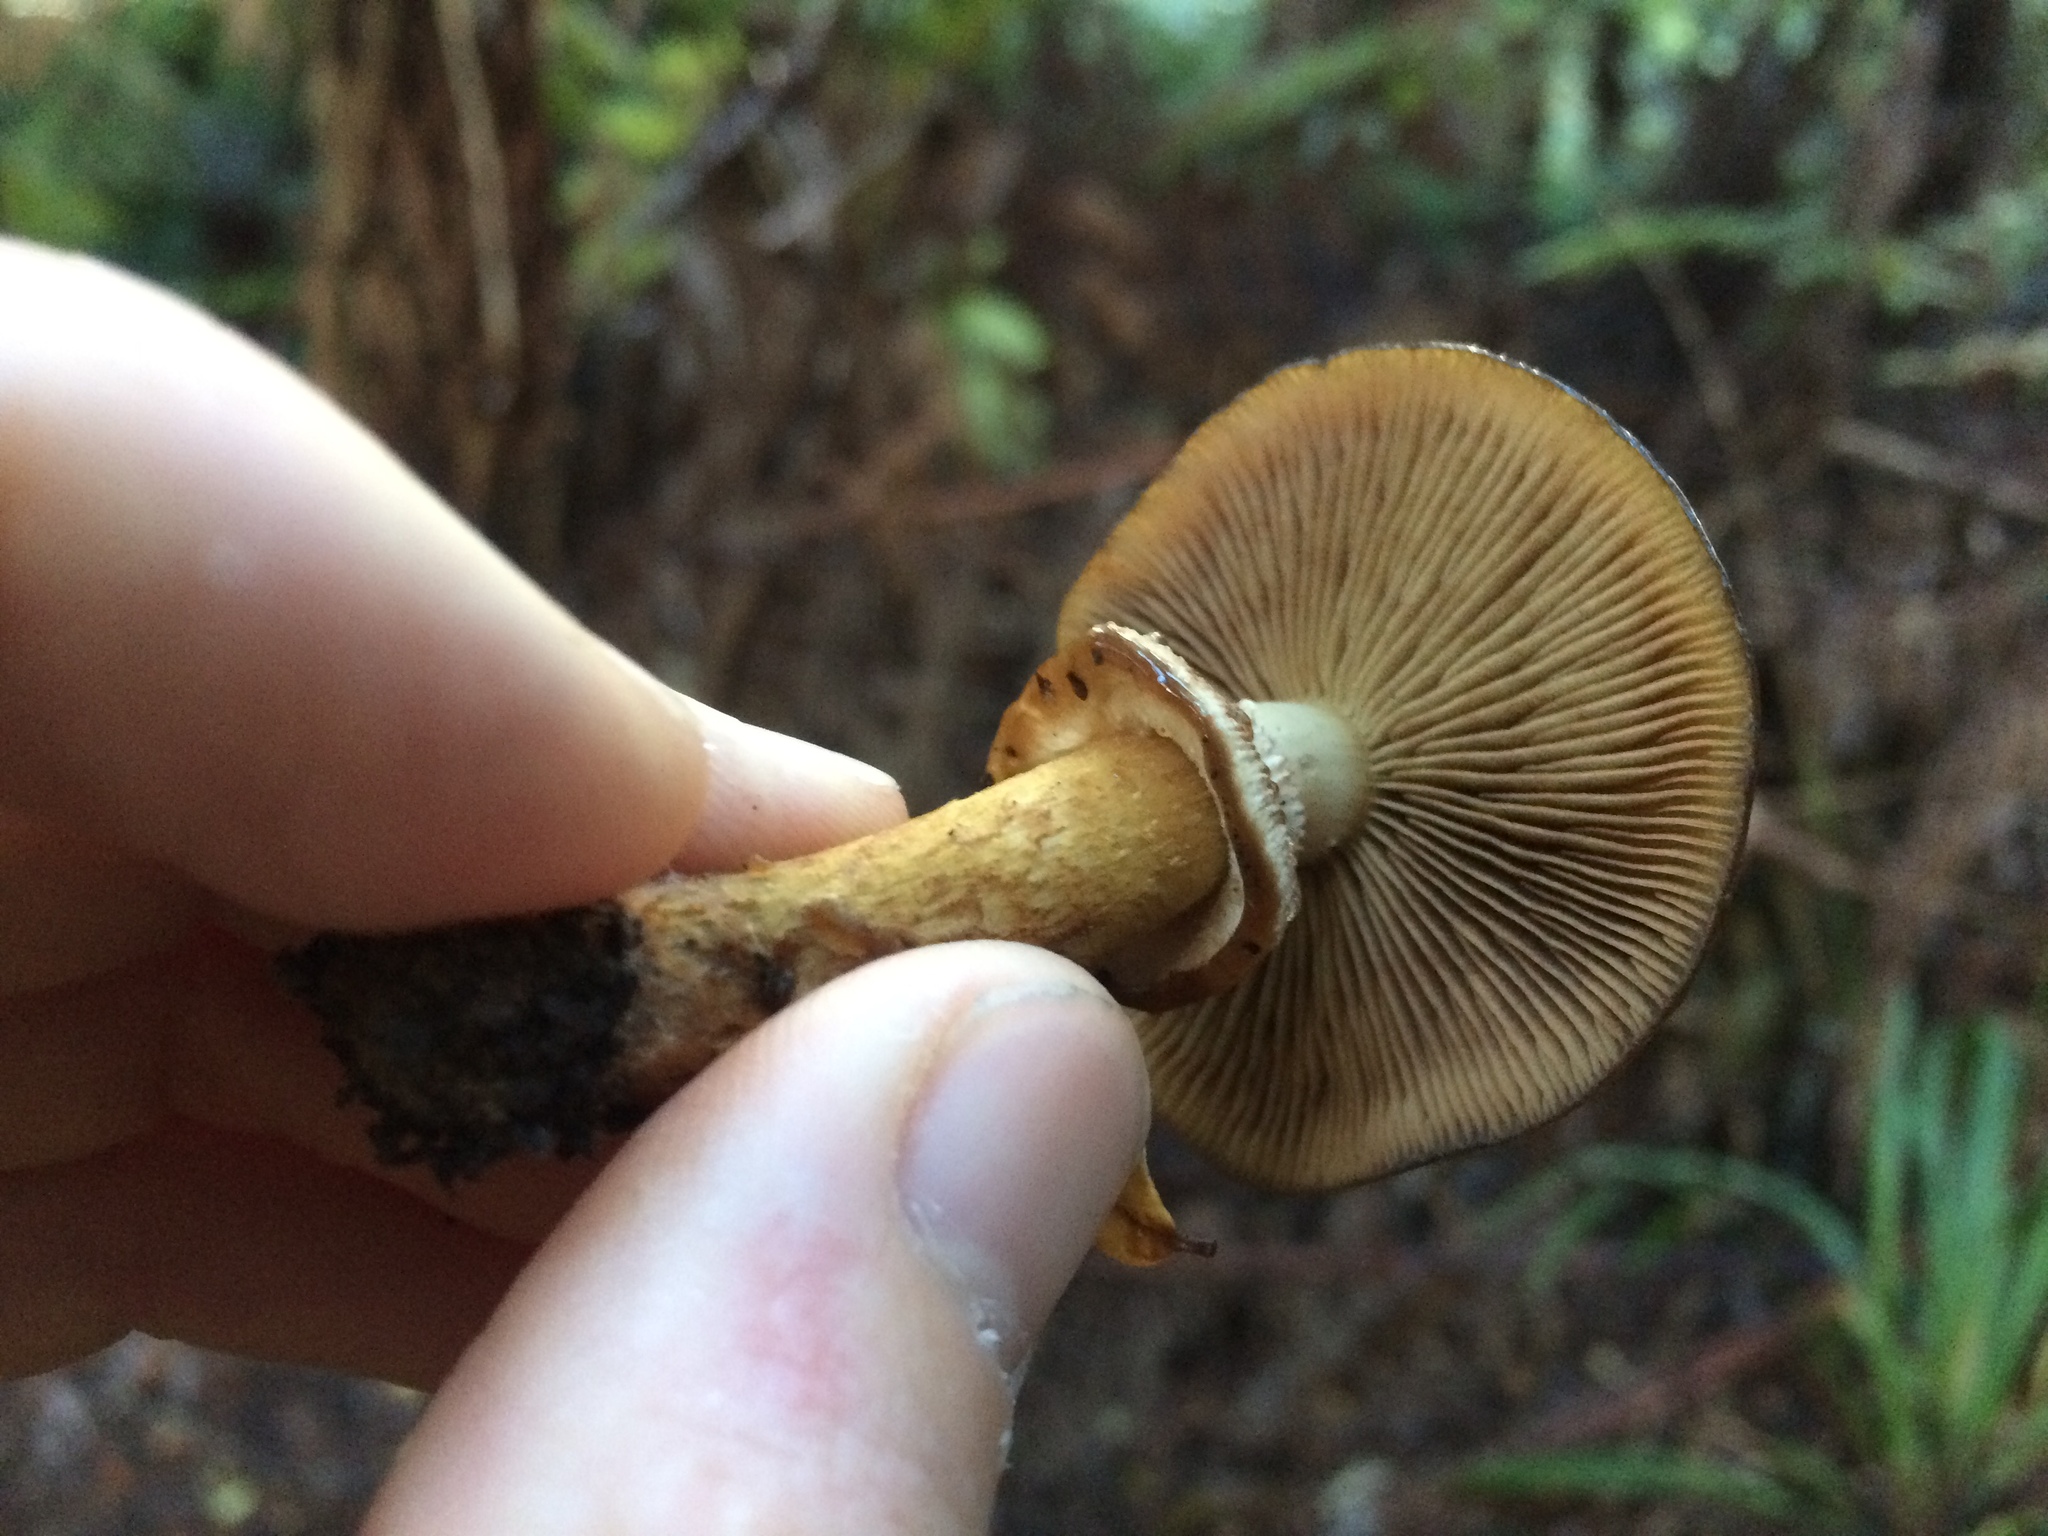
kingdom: Fungi
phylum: Basidiomycota
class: Agaricomycetes
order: Agaricales
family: Cortinariaceae
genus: Cortinarius
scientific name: Cortinarius majestaticus
